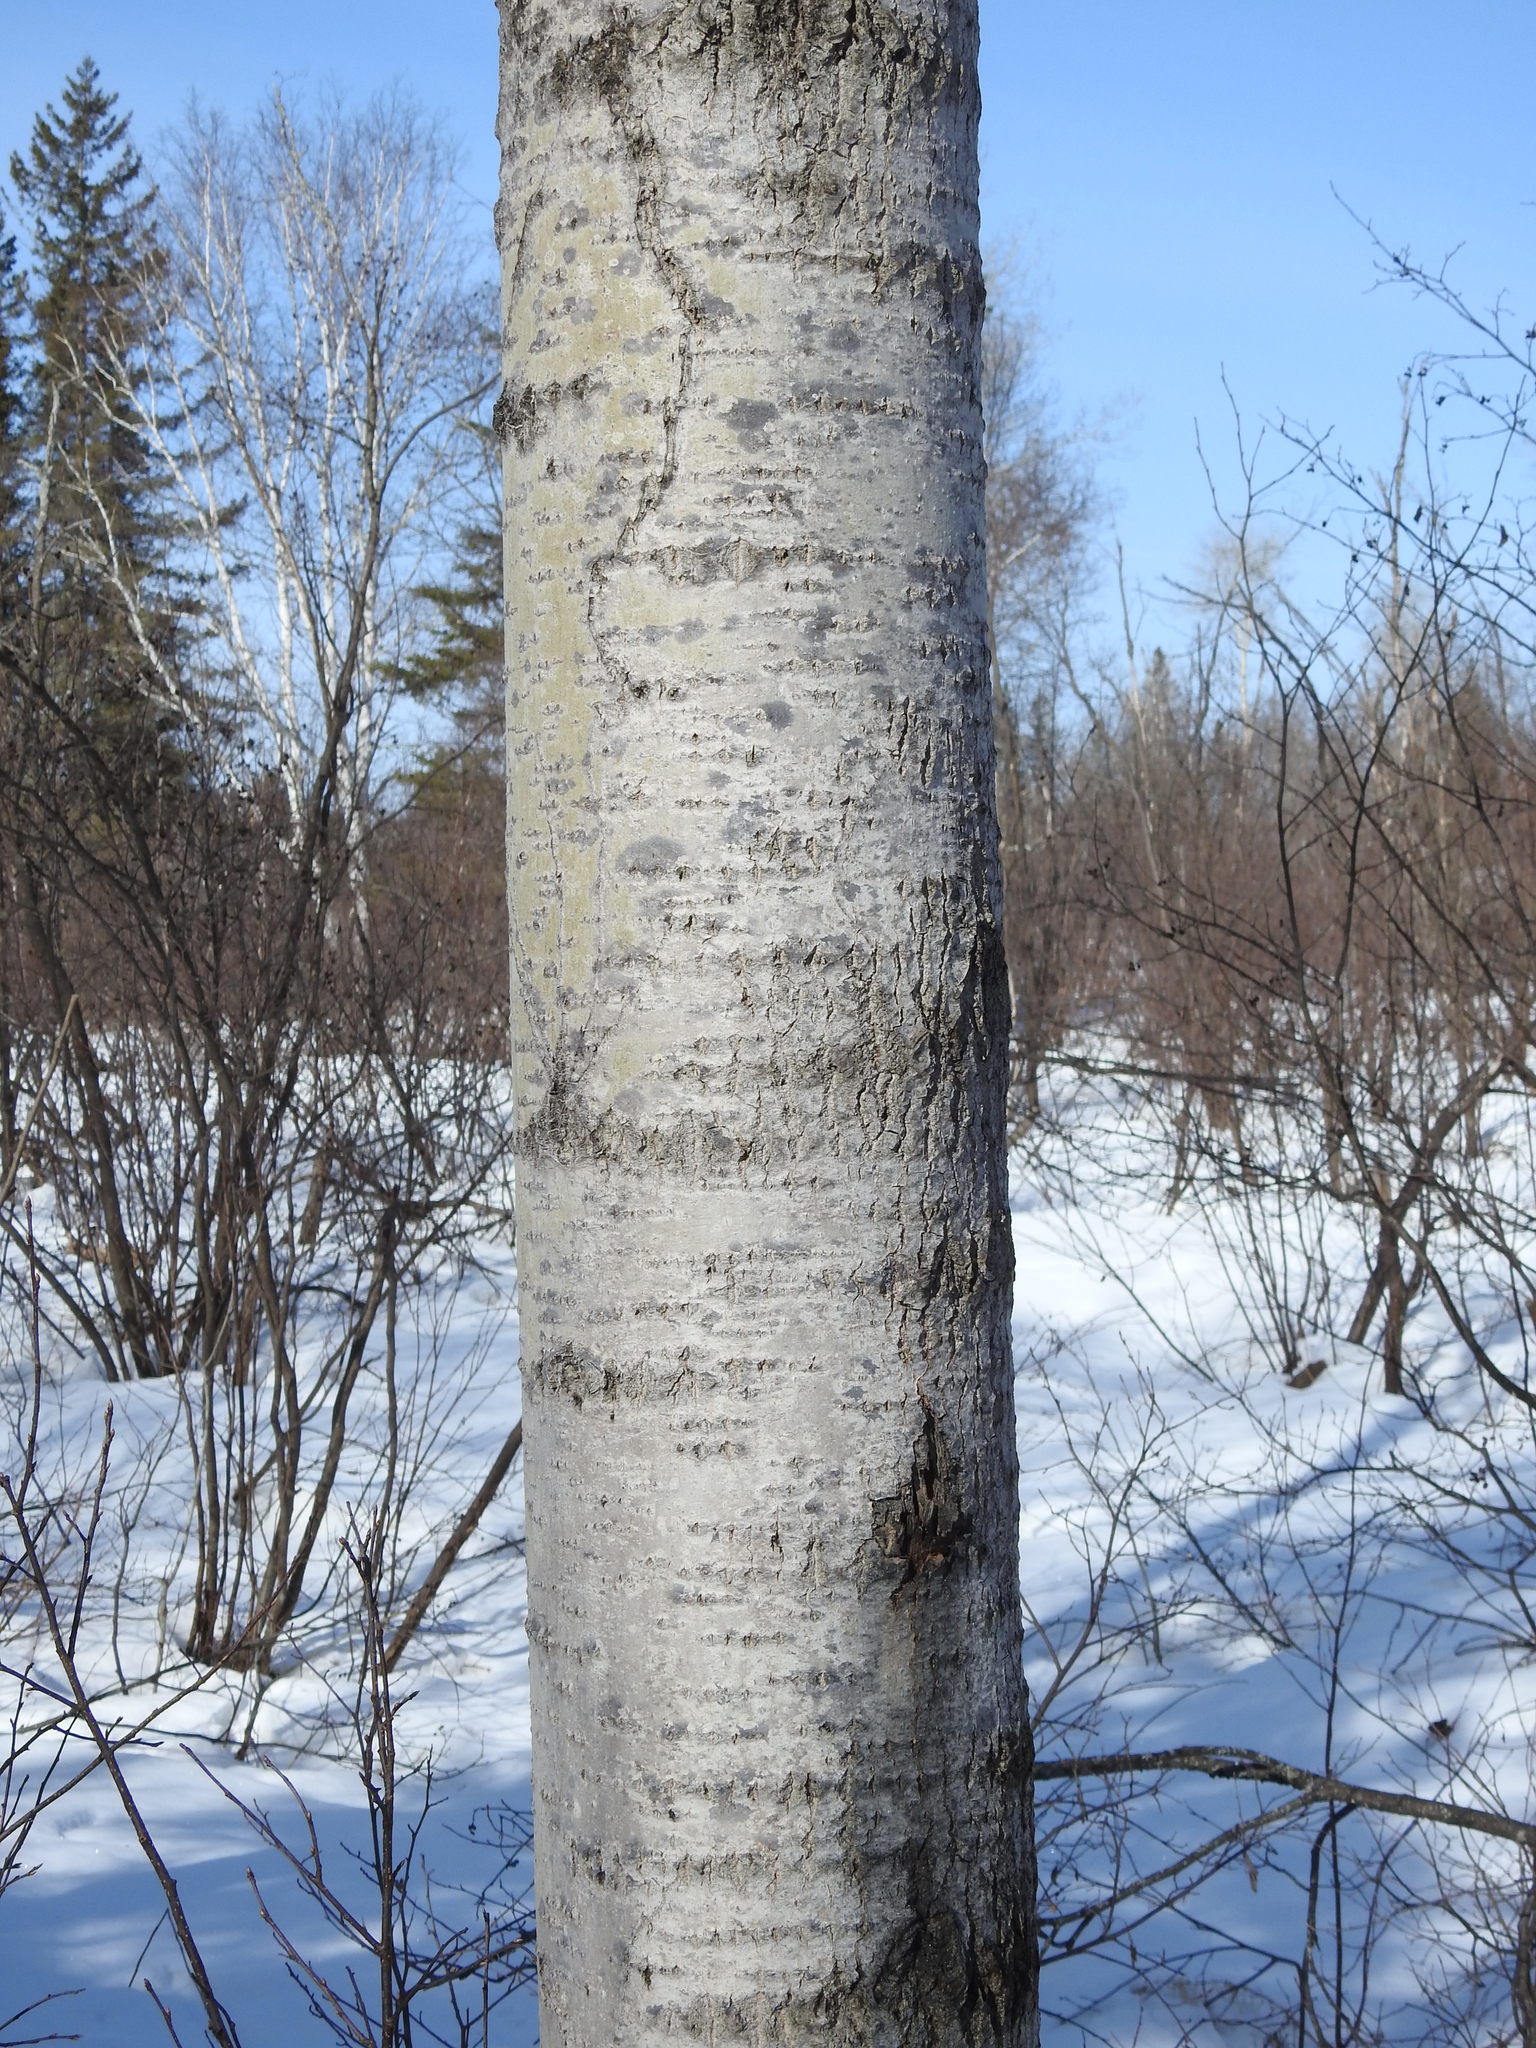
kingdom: Plantae
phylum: Tracheophyta
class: Magnoliopsida
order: Malpighiales
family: Salicaceae
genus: Populus
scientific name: Populus tremuloides
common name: Quaking aspen
